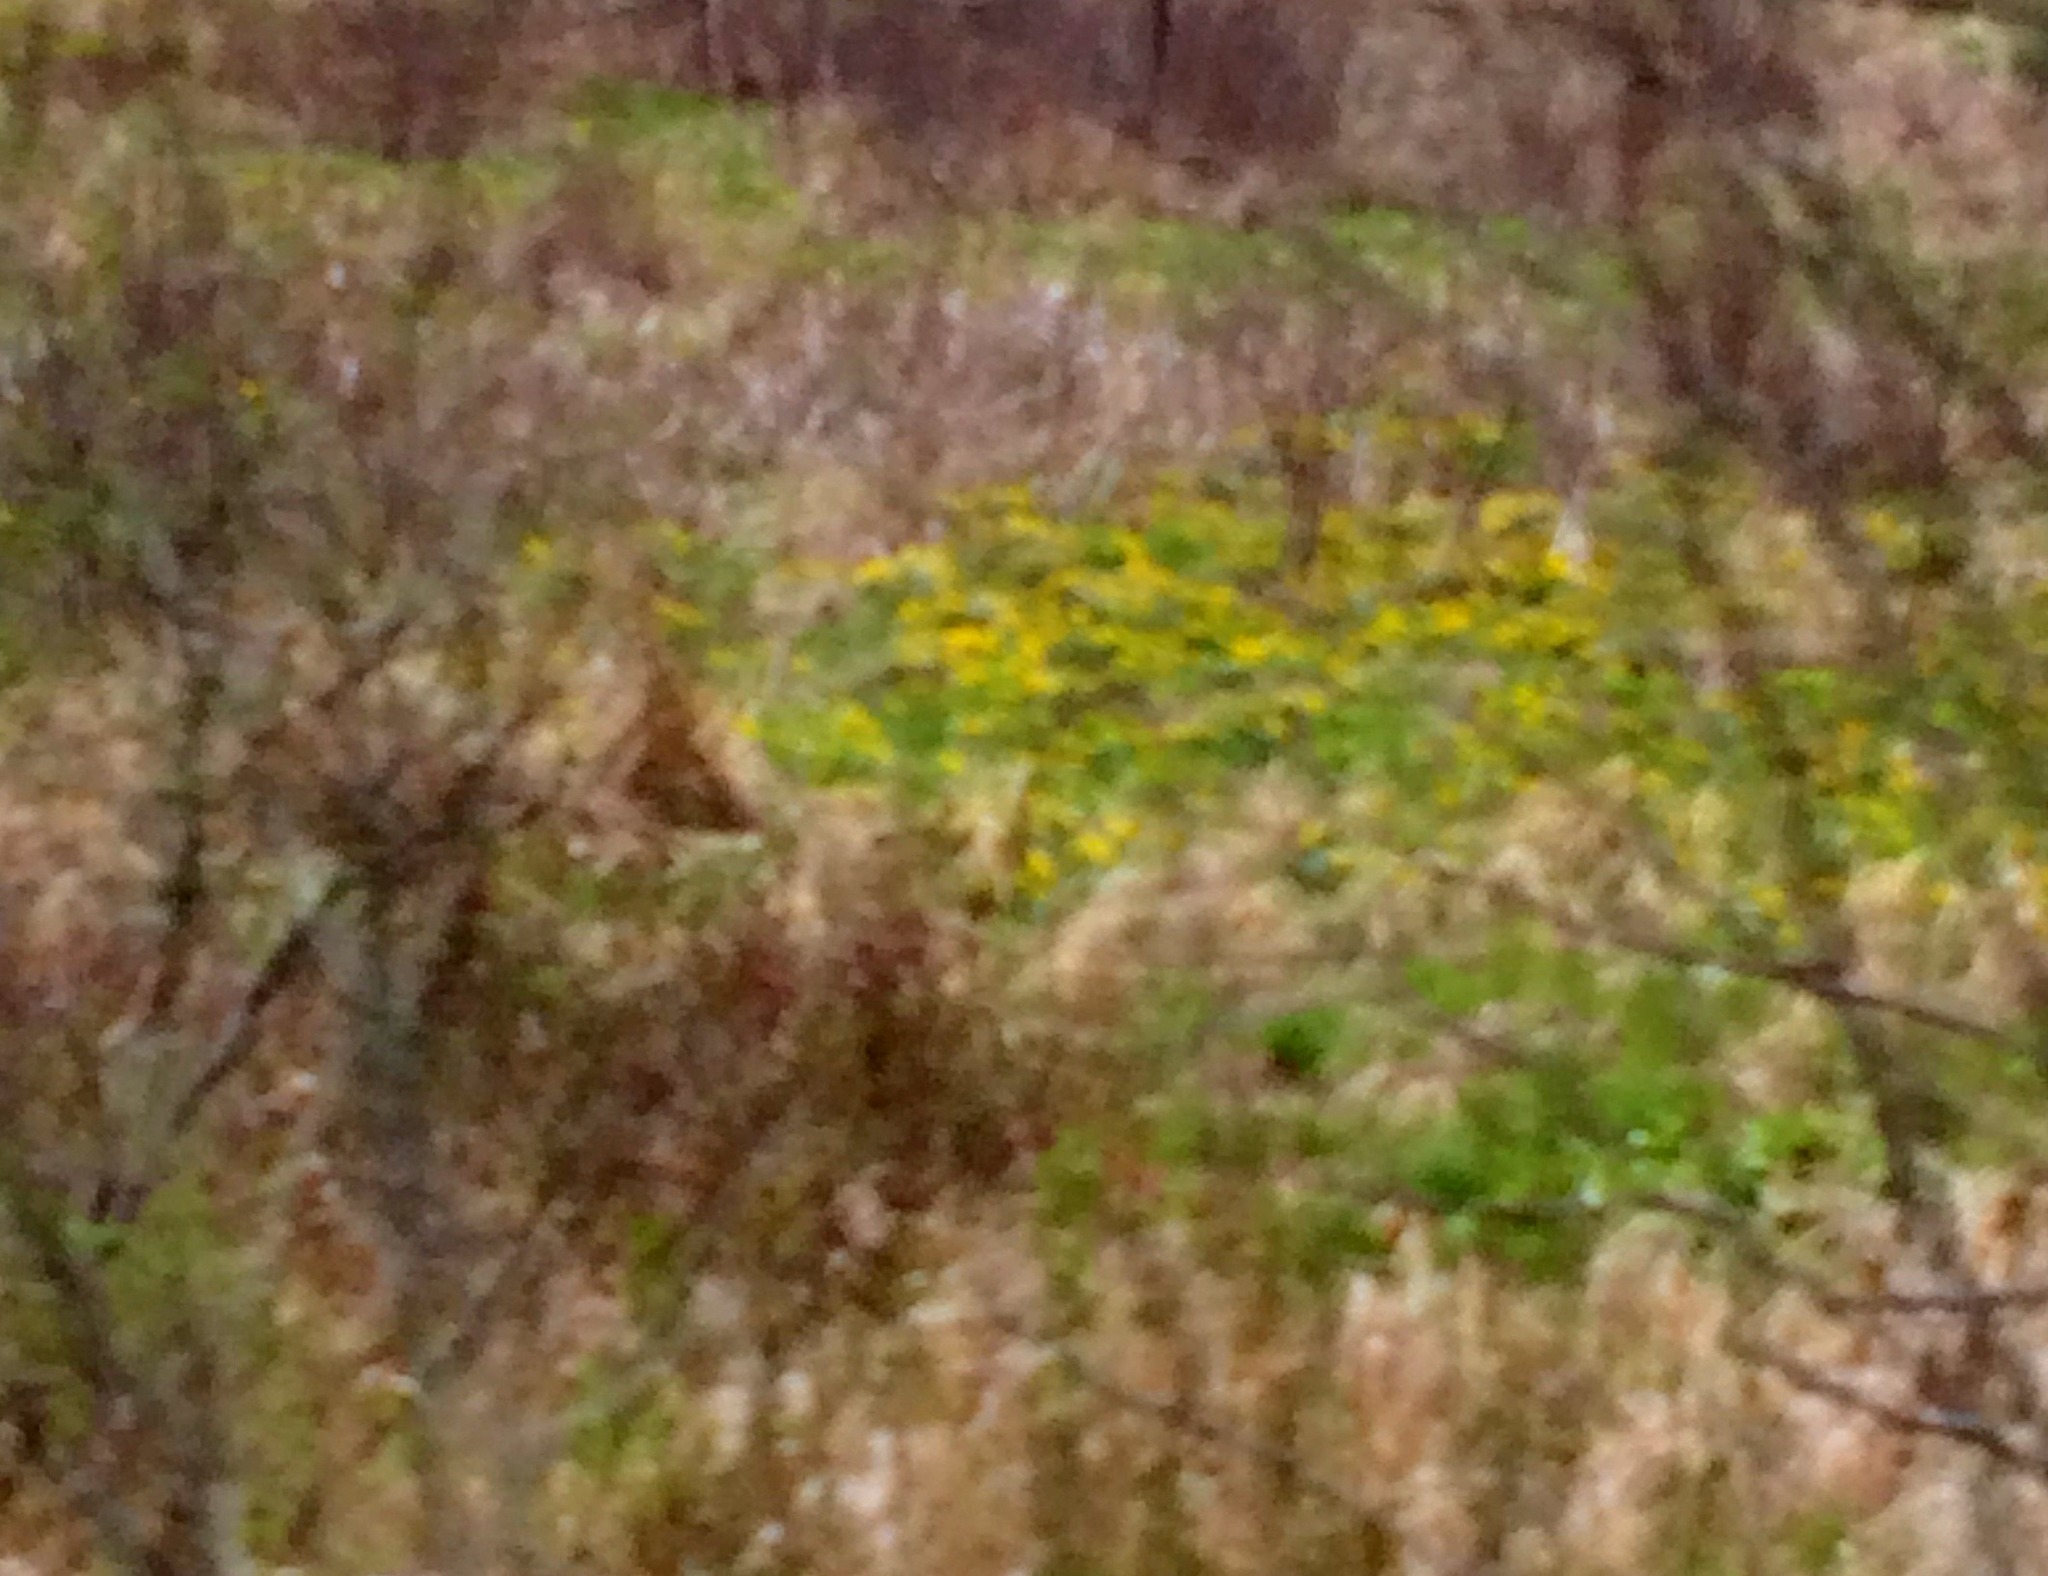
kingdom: Plantae
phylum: Tracheophyta
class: Magnoliopsida
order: Ranunculales
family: Ranunculaceae
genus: Caltha
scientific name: Caltha palustris
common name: Marsh marigold
